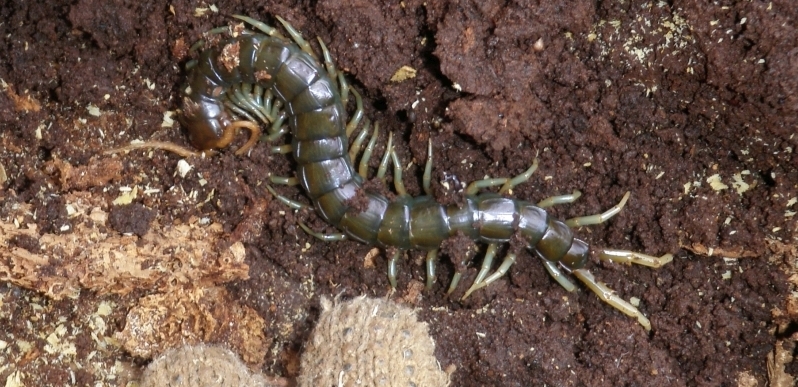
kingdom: Animalia
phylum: Arthropoda
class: Chilopoda
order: Scolopendromorpha
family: Scolopendridae
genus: Ethmostigmus
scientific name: Ethmostigmus rubripes
